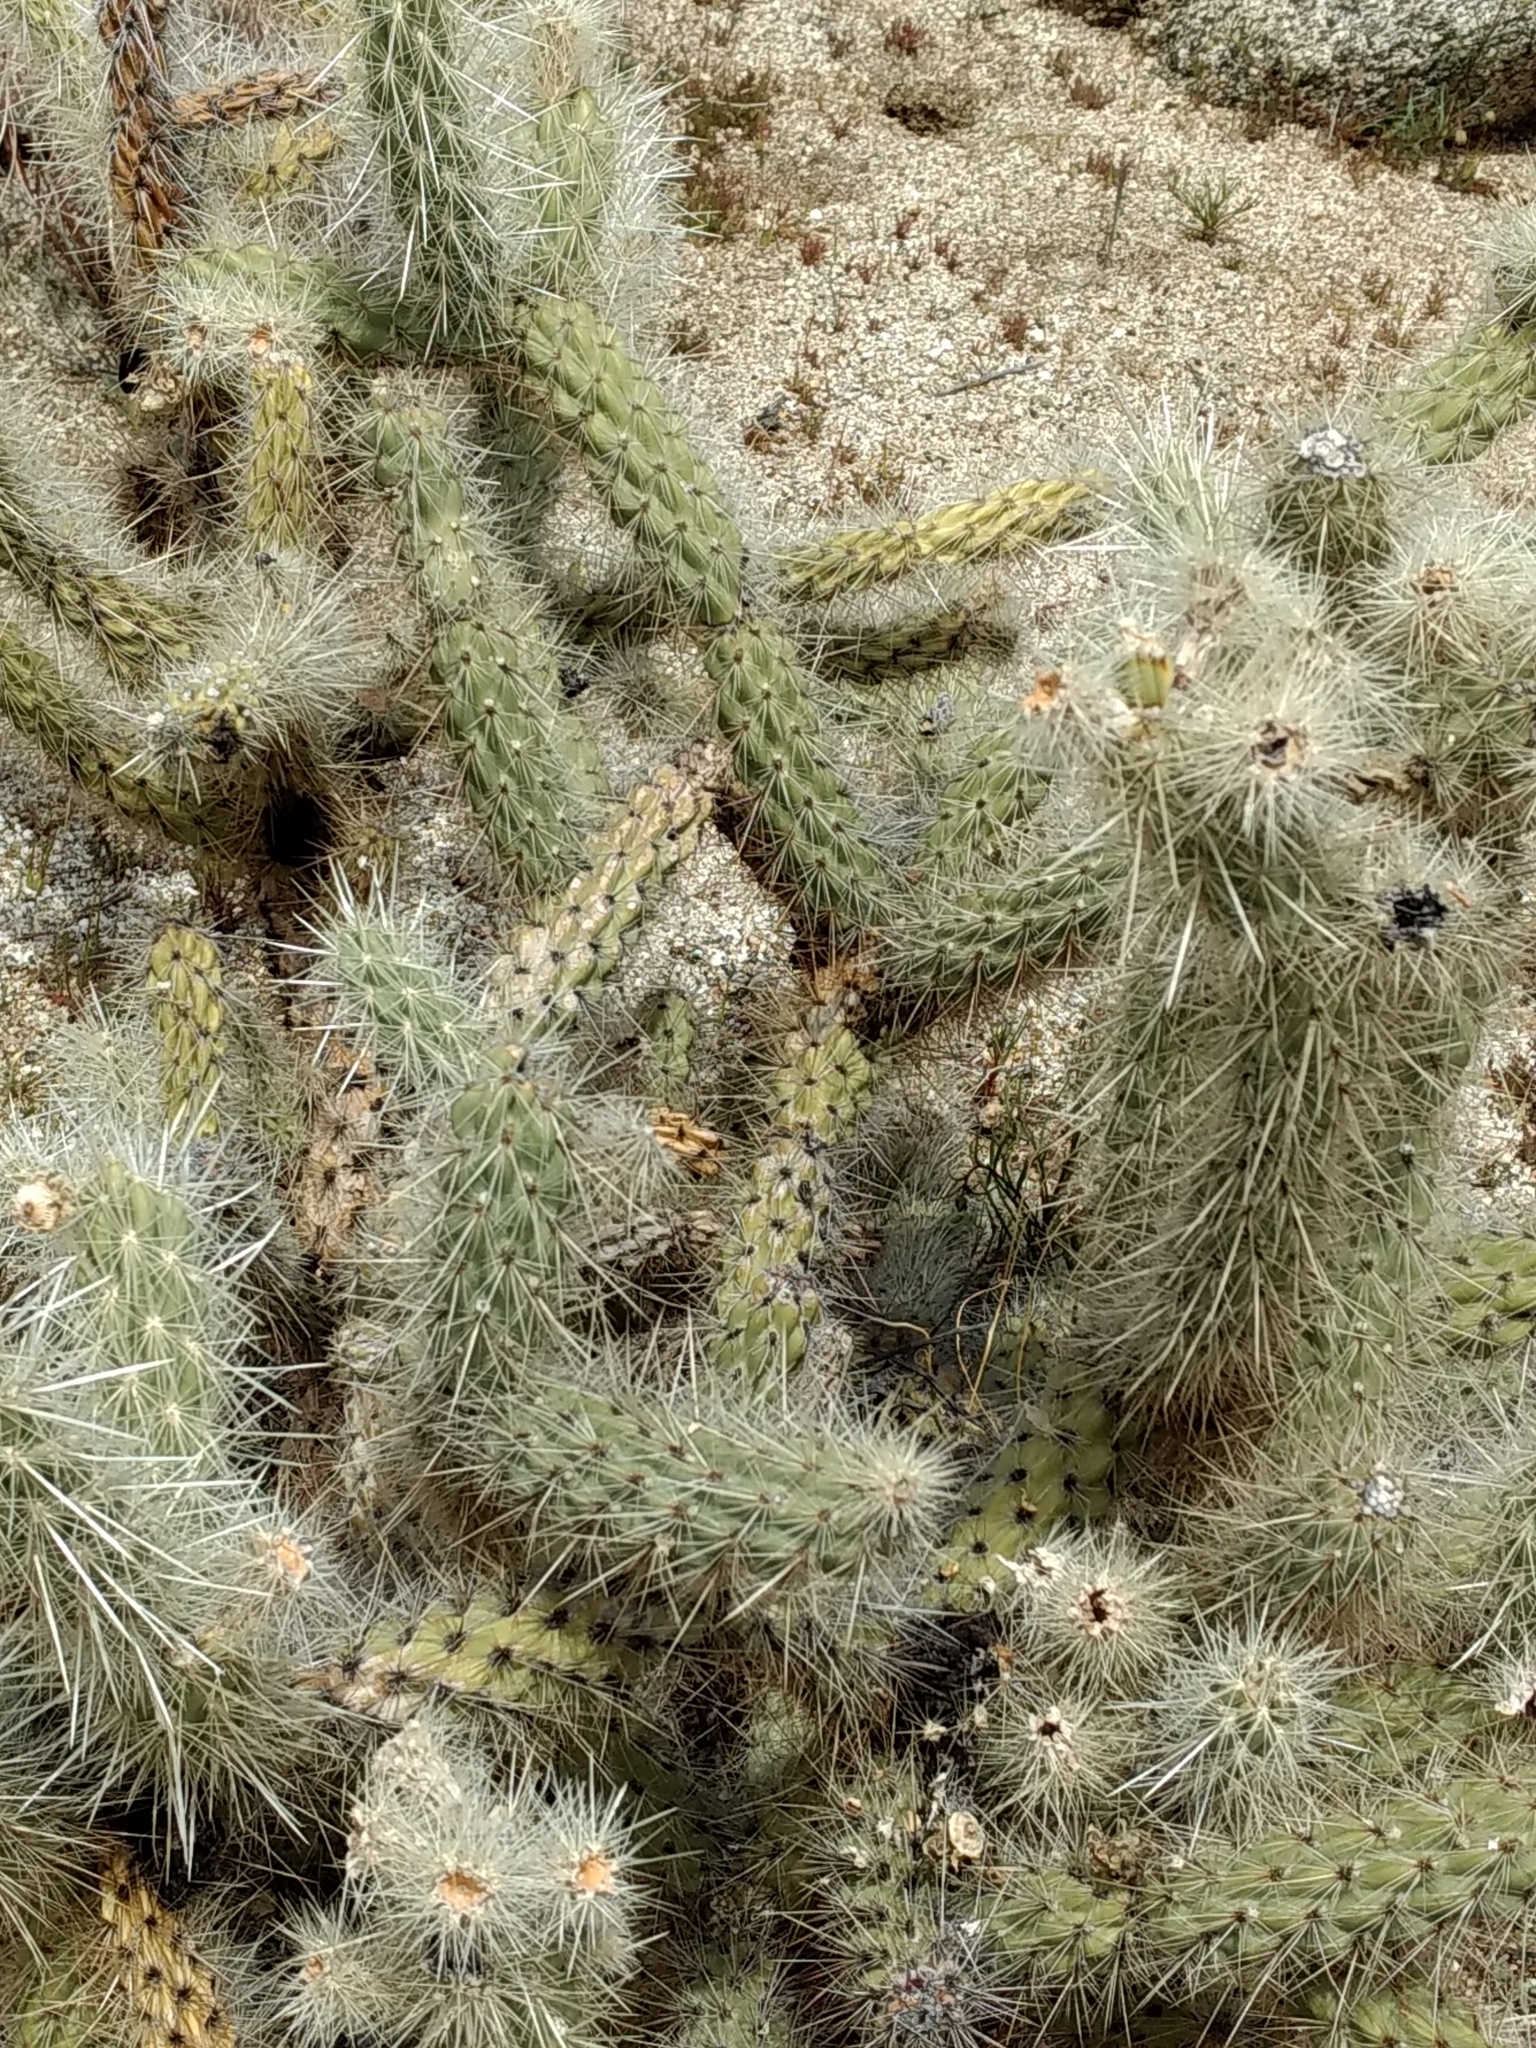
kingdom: Plantae
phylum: Tracheophyta
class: Magnoliopsida
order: Caryophyllales
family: Cactaceae
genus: Cylindropuntia
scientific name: Cylindropuntia ganderi
